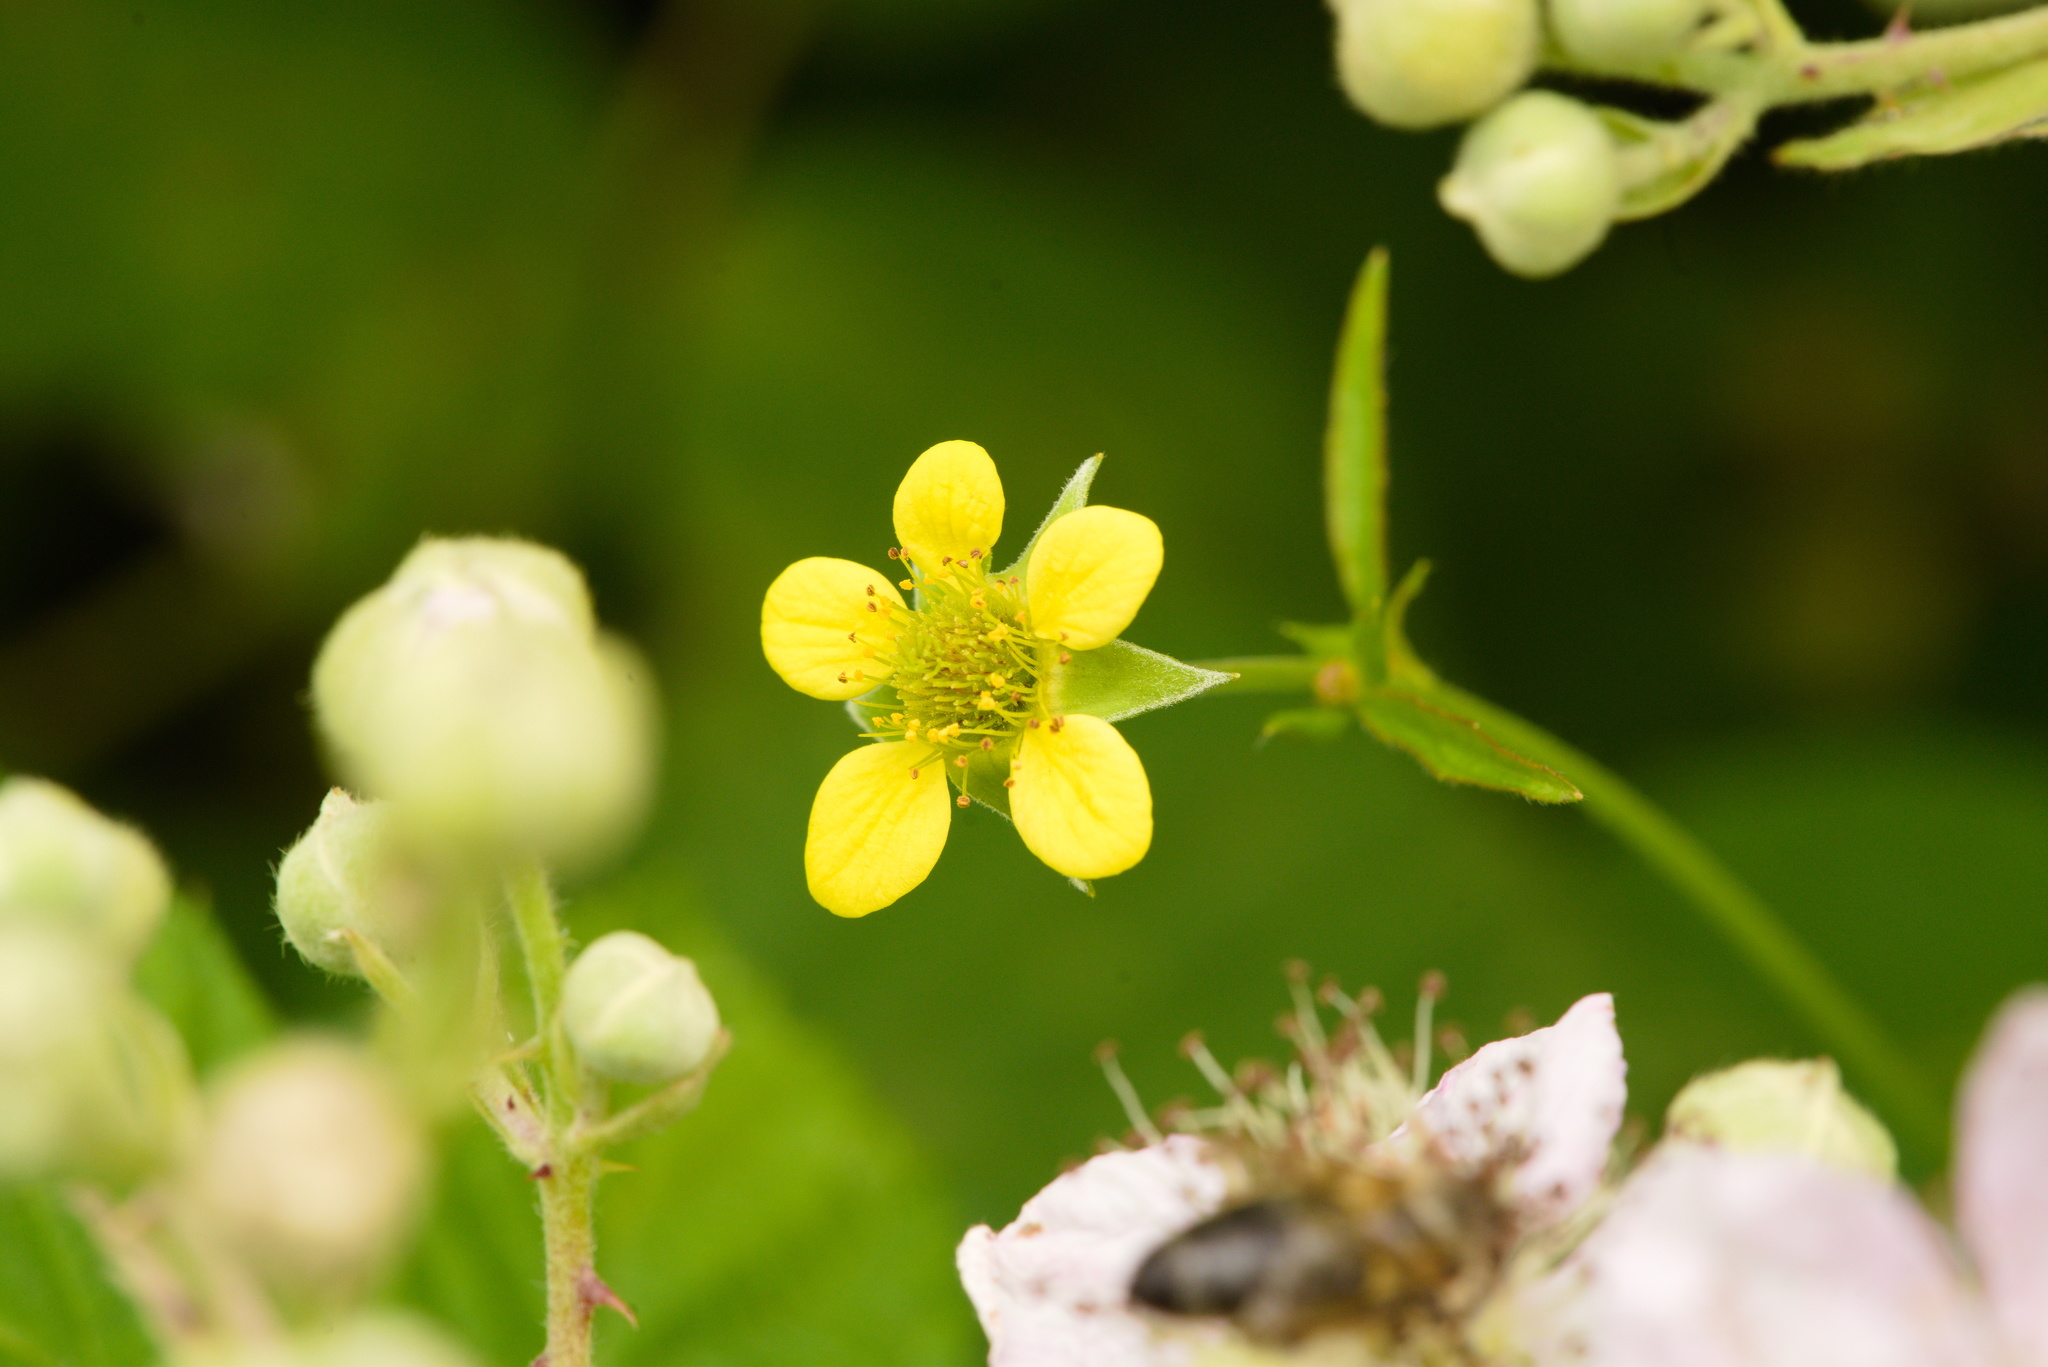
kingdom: Plantae
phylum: Tracheophyta
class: Magnoliopsida
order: Rosales
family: Rosaceae
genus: Geum
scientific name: Geum urbanum
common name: Wood avens
